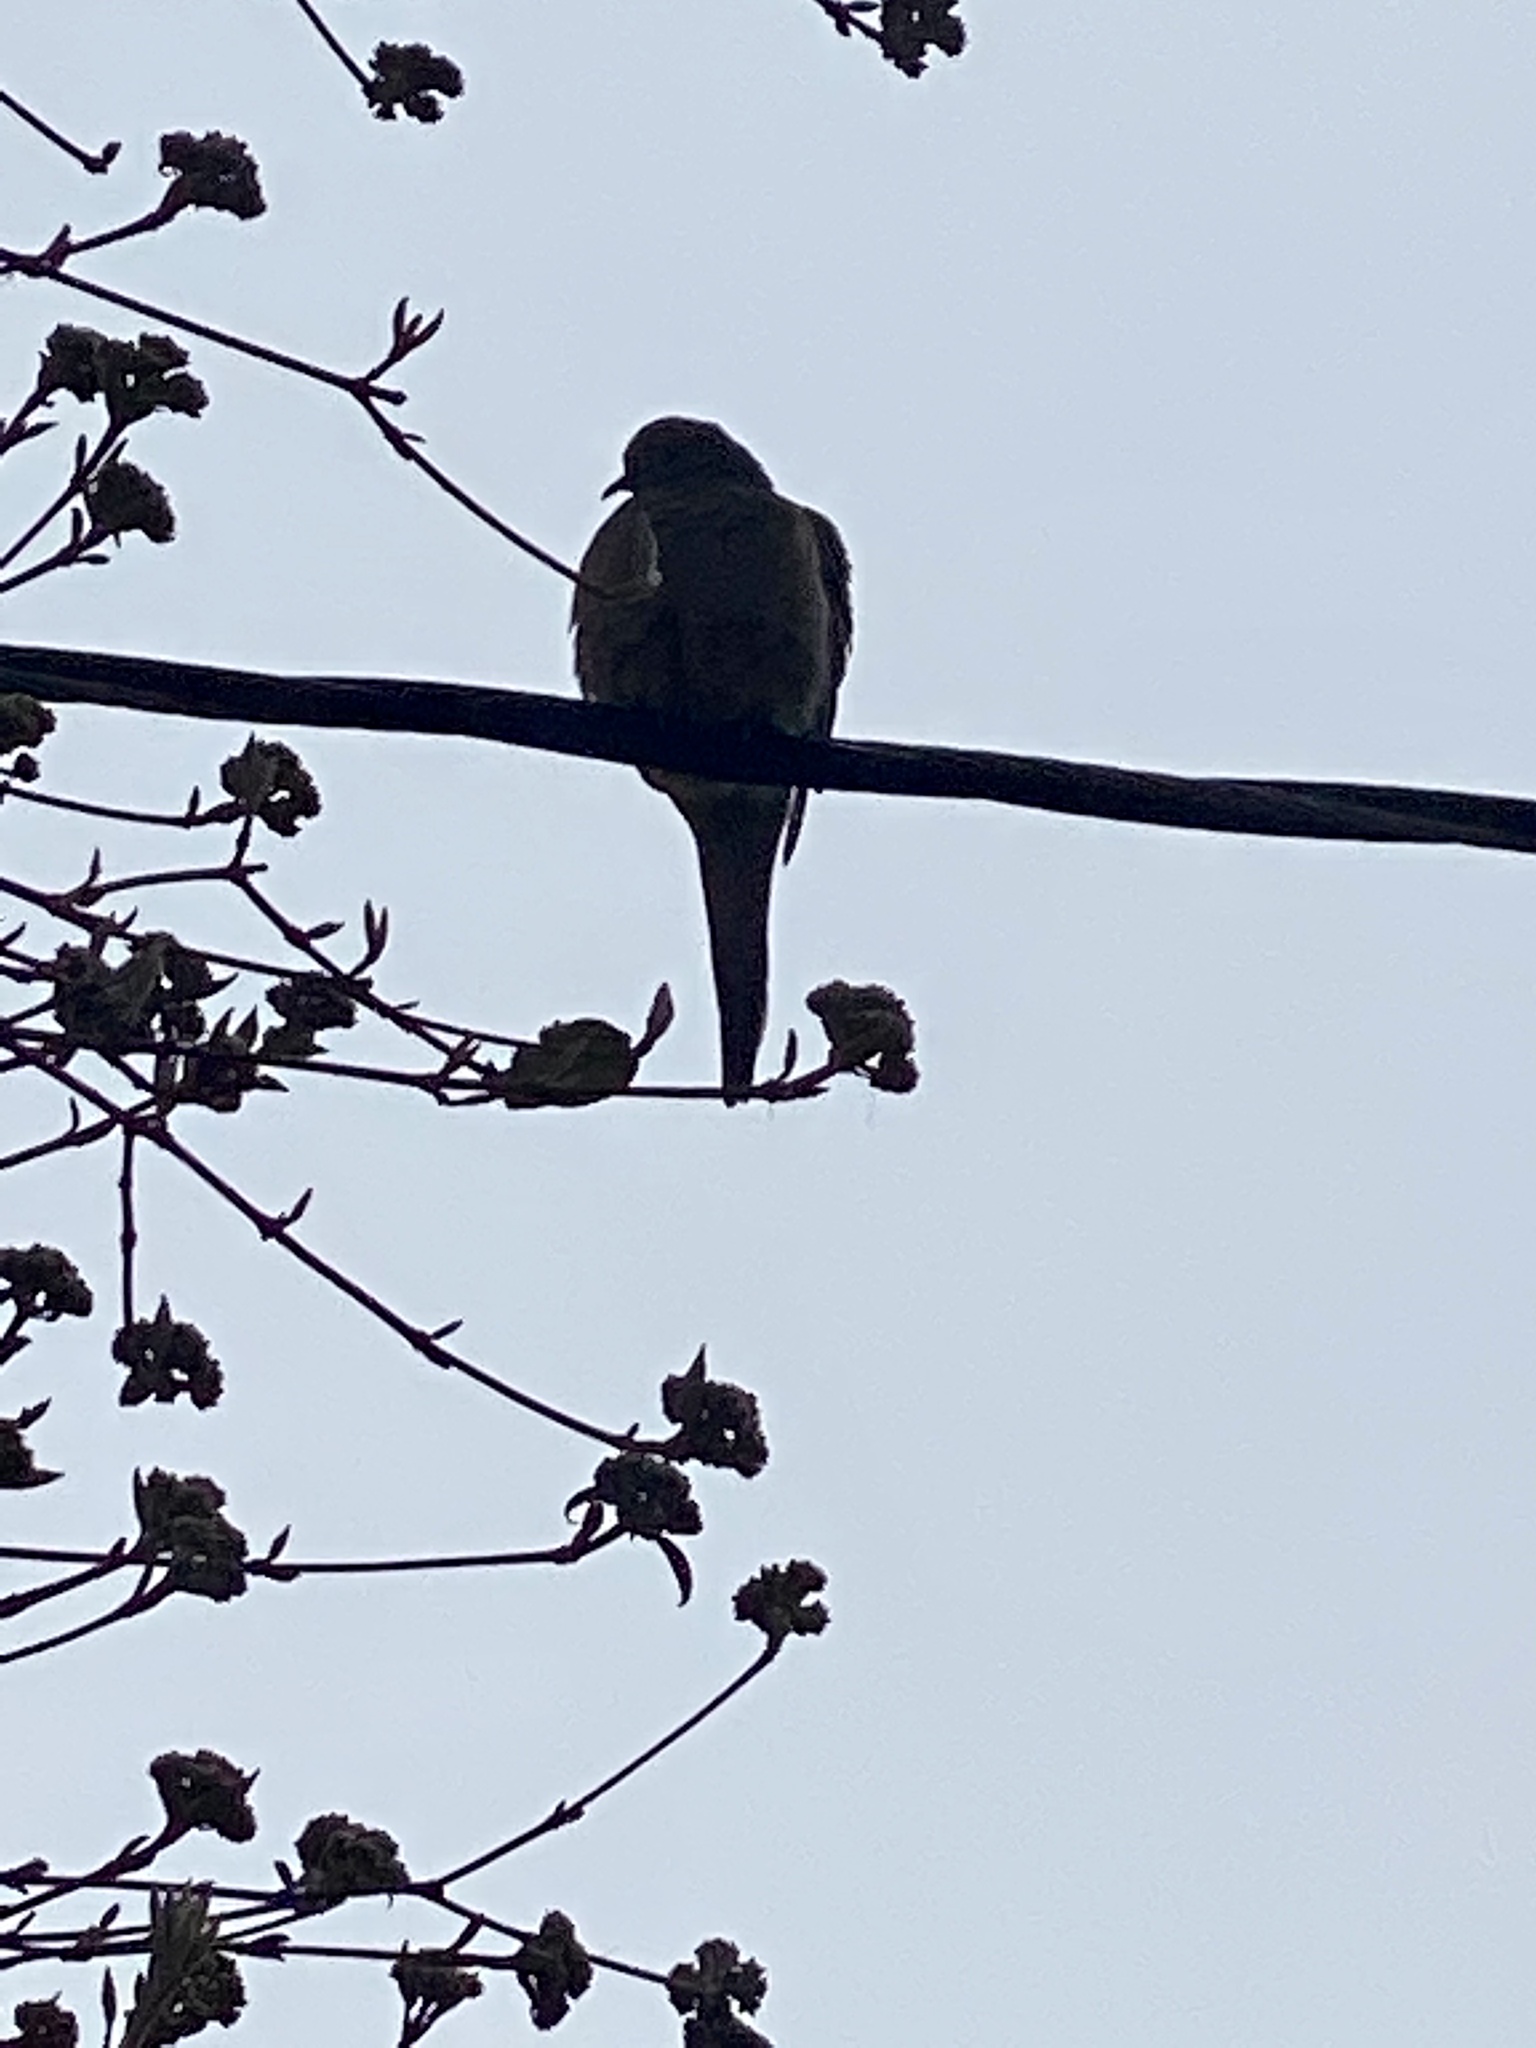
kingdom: Animalia
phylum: Chordata
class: Aves
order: Columbiformes
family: Columbidae
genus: Zenaida
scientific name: Zenaida macroura
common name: Mourning dove
